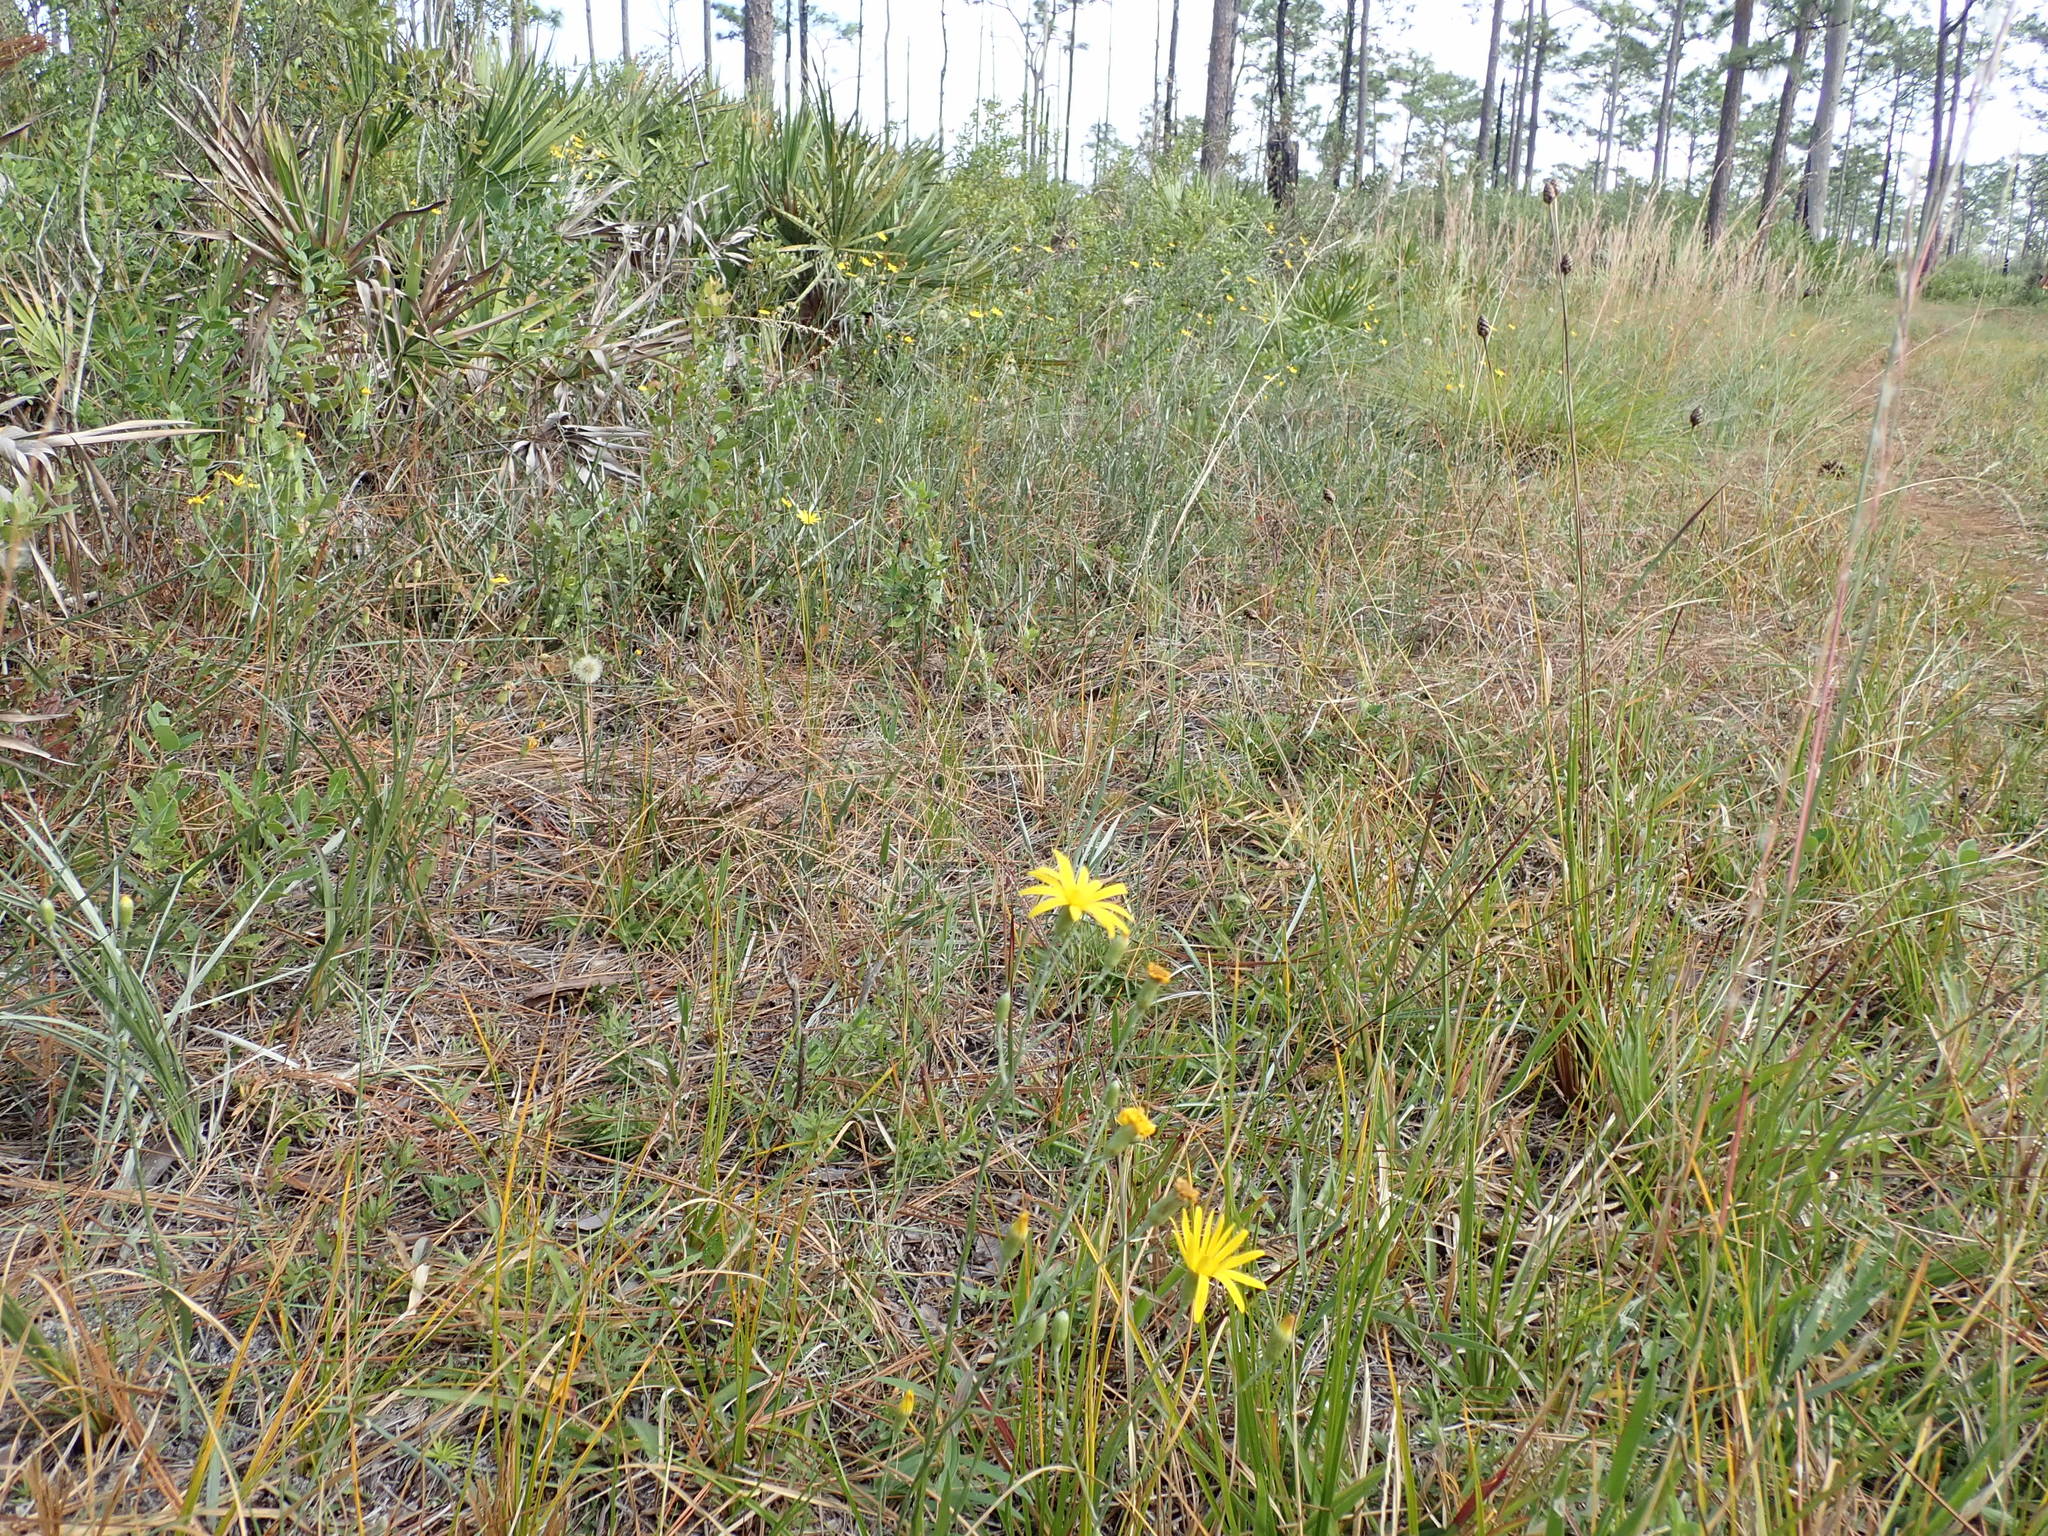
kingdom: Plantae
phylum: Tracheophyta
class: Magnoliopsida
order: Asterales
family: Asteraceae
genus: Pityopsis
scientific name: Pityopsis graminifolia
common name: Grass-leaf golden-aster
